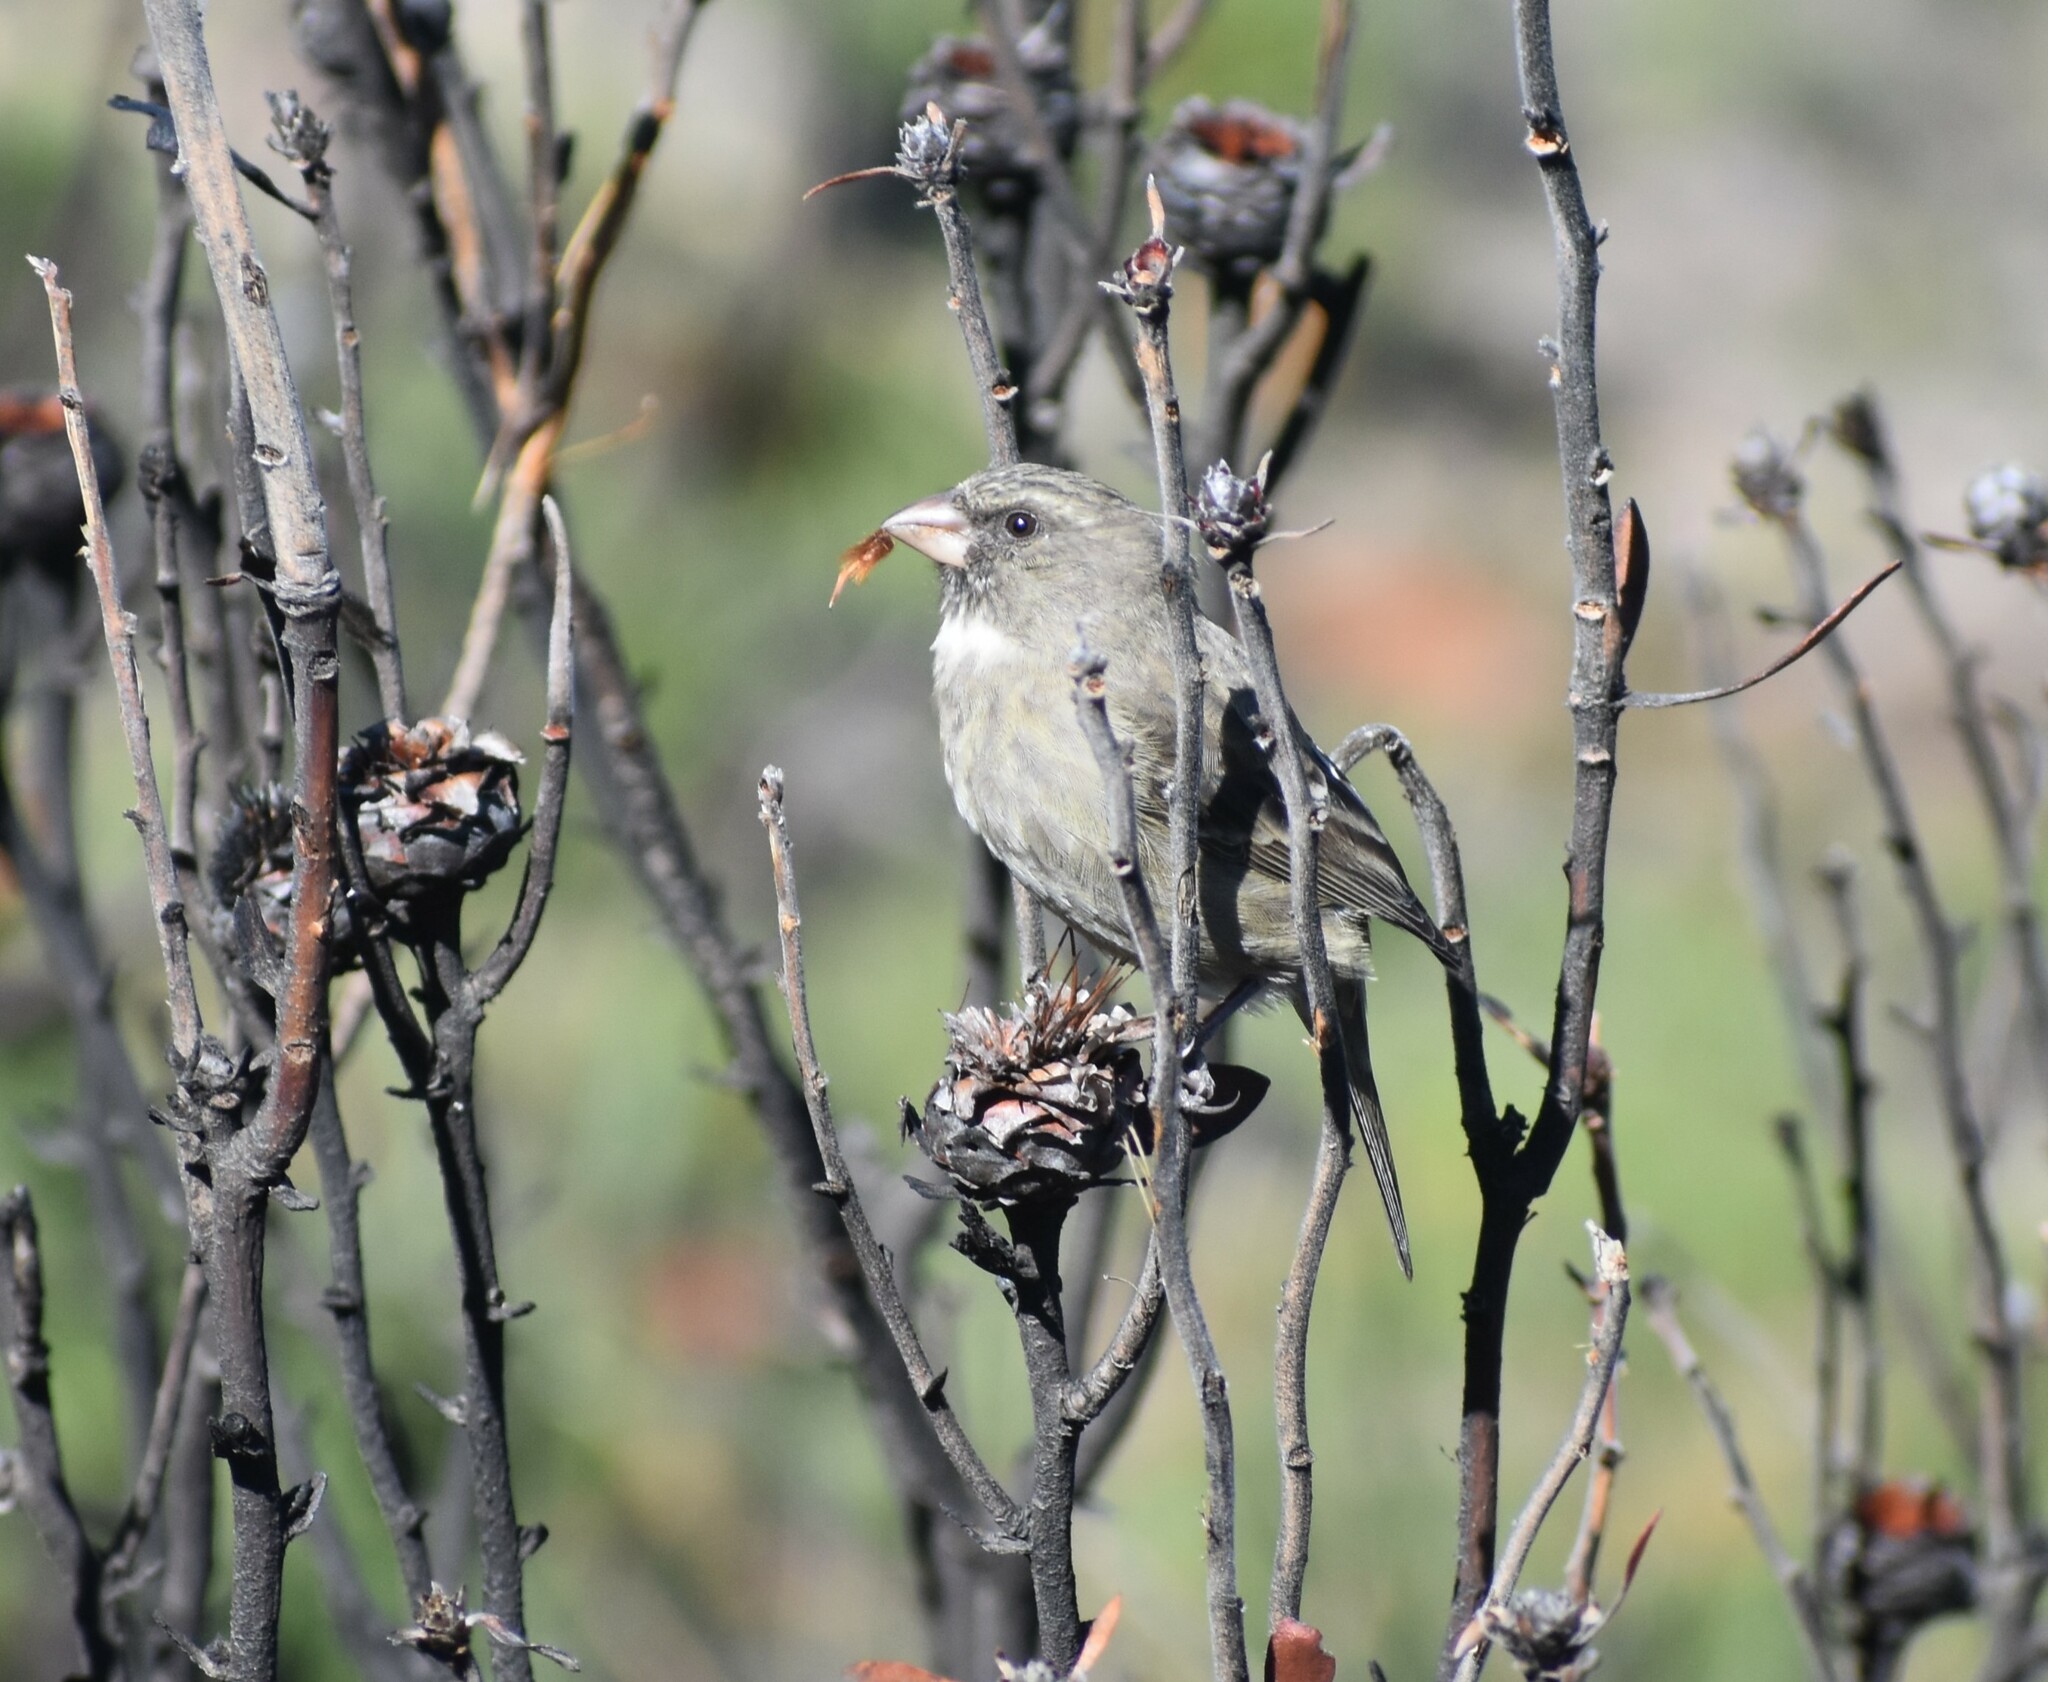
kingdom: Animalia
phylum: Chordata
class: Aves
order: Passeriformes
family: Fringillidae
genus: Crithagra
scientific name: Crithagra leucoptera
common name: Protea canary
